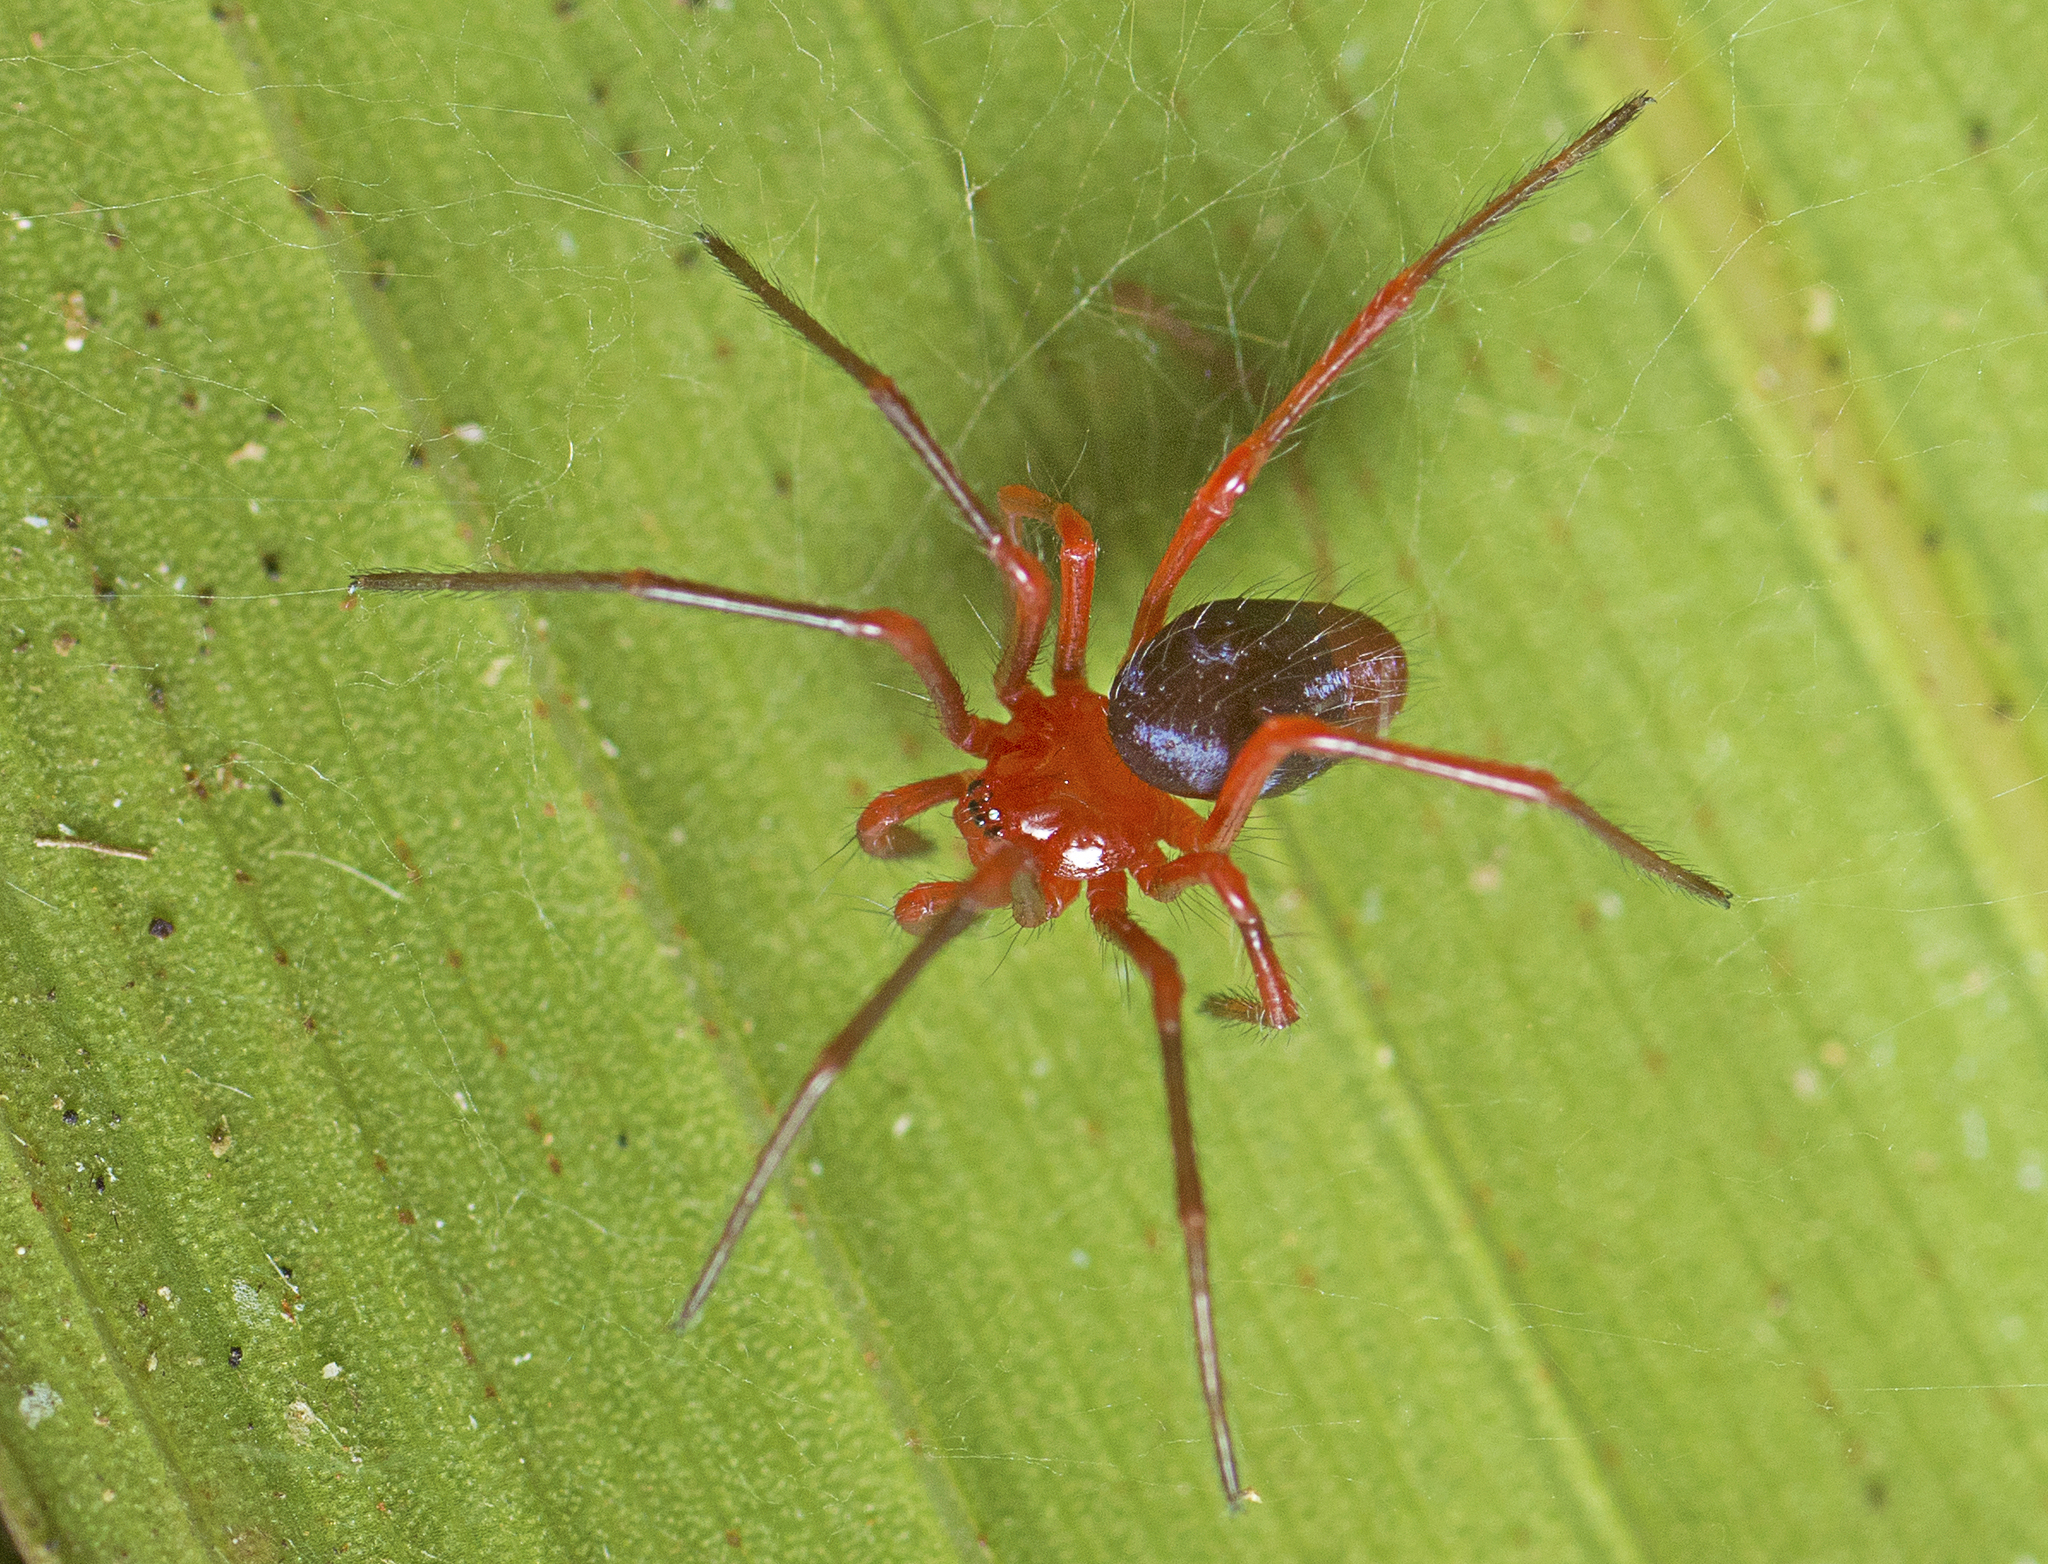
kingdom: Animalia
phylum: Arthropoda
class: Arachnida
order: Araneae
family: Nicodamidae
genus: Dimidamus
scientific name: Dimidamus dimidiatus
